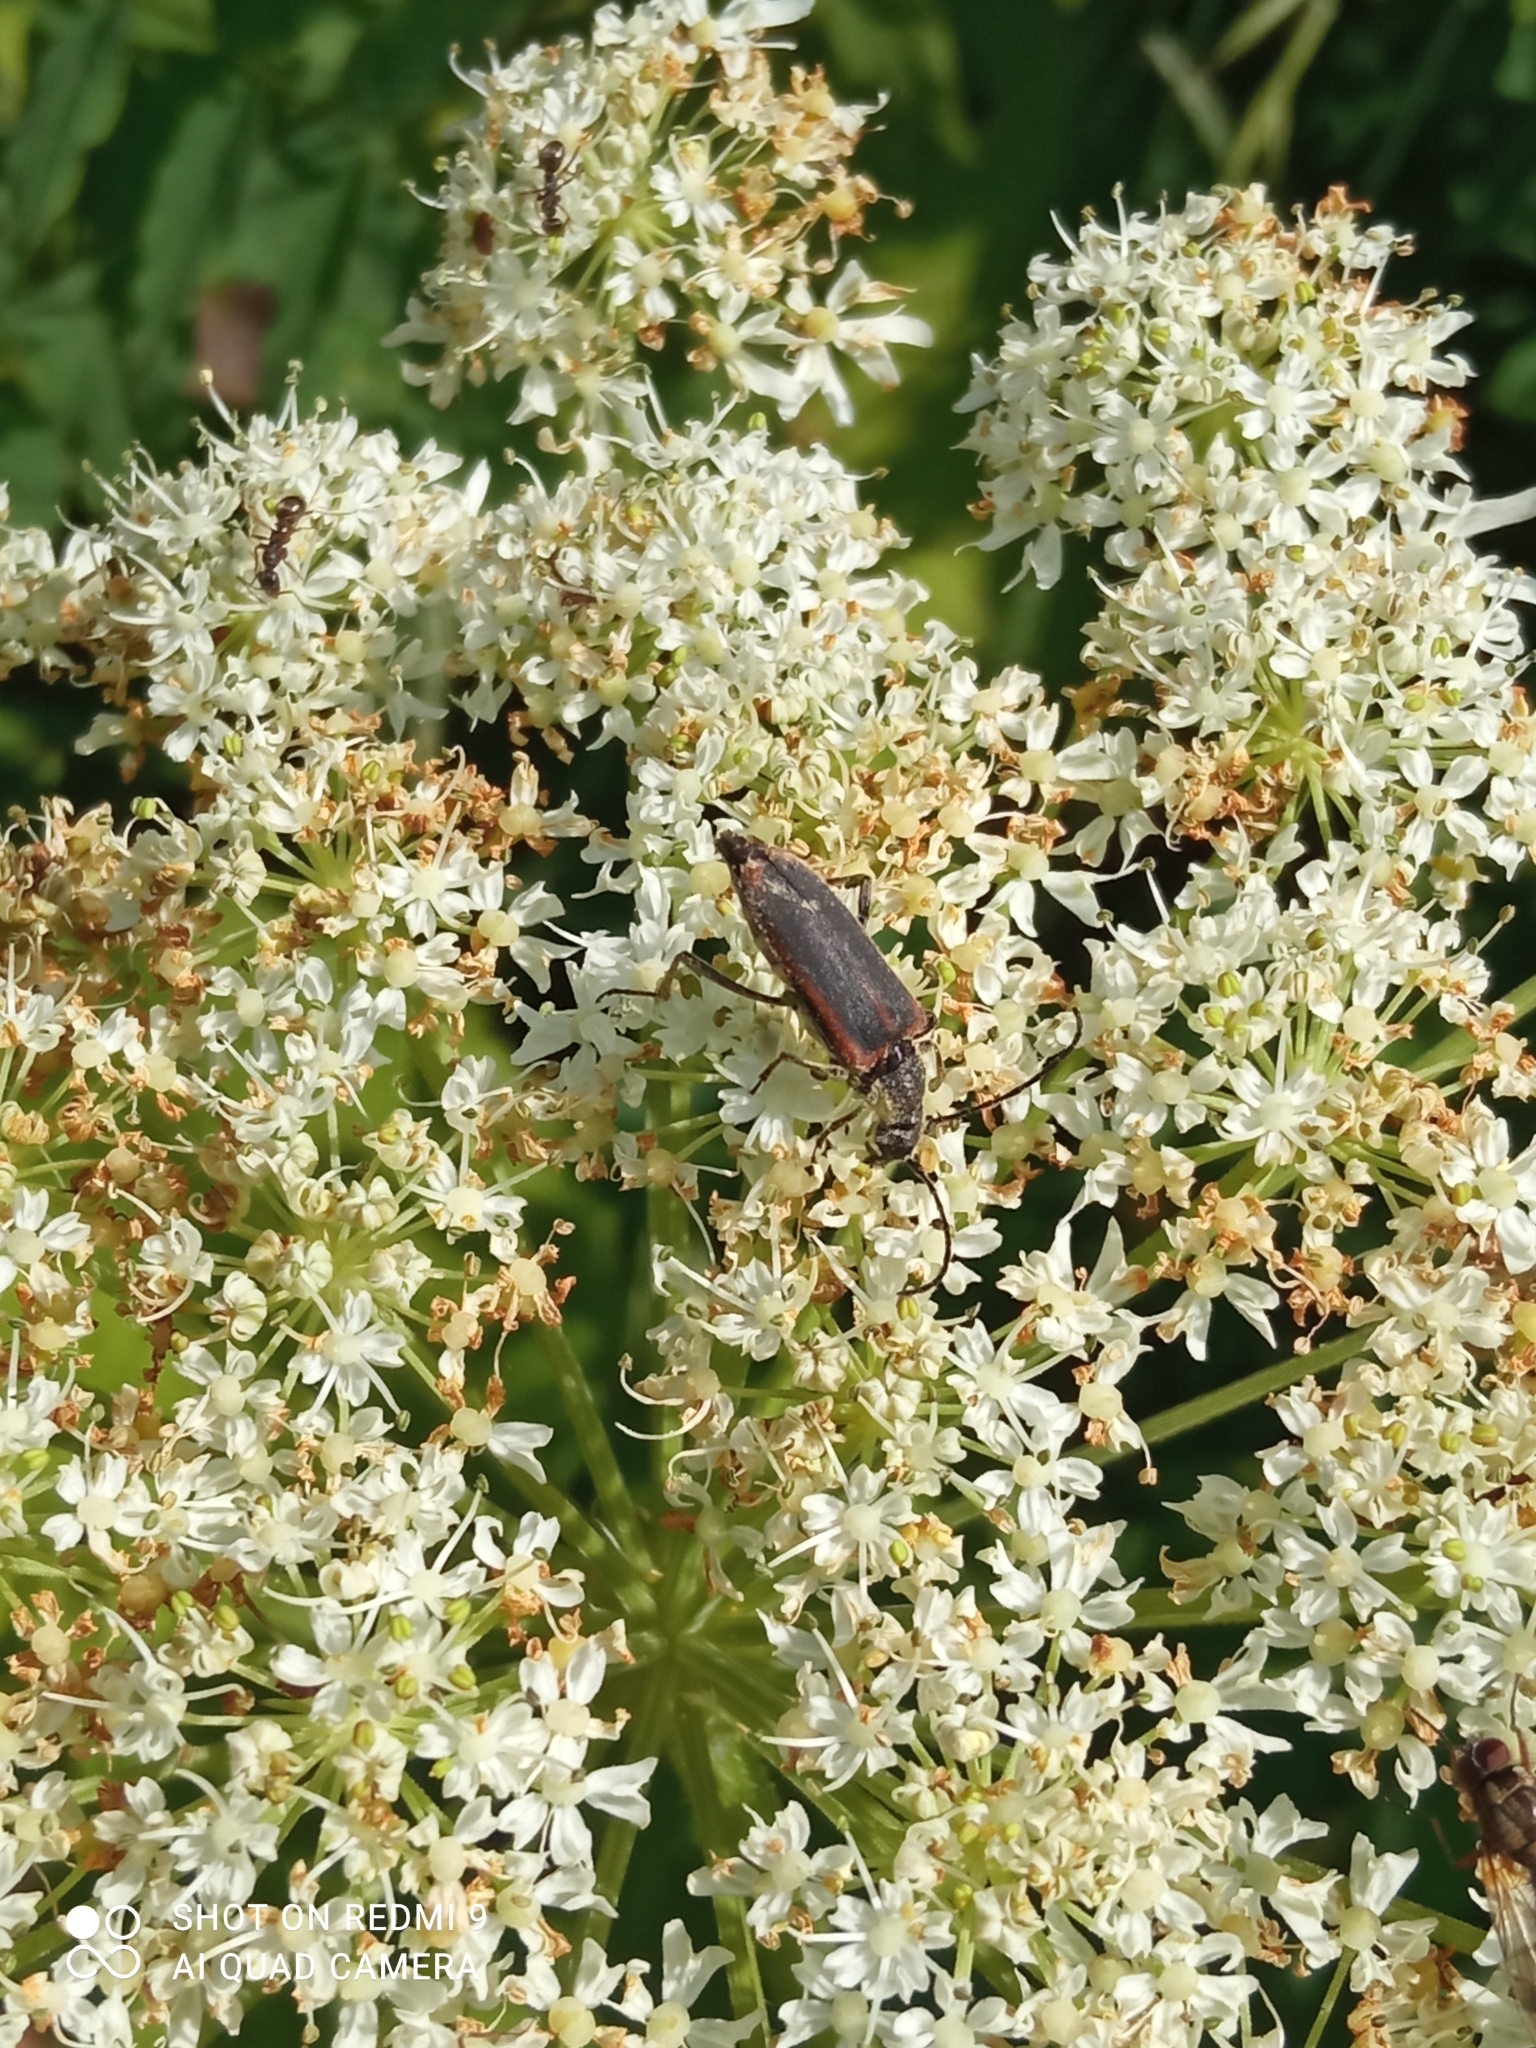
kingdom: Animalia
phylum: Arthropoda
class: Insecta
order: Coleoptera
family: Cerambycidae
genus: Anastrangalia
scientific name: Anastrangalia dubia
